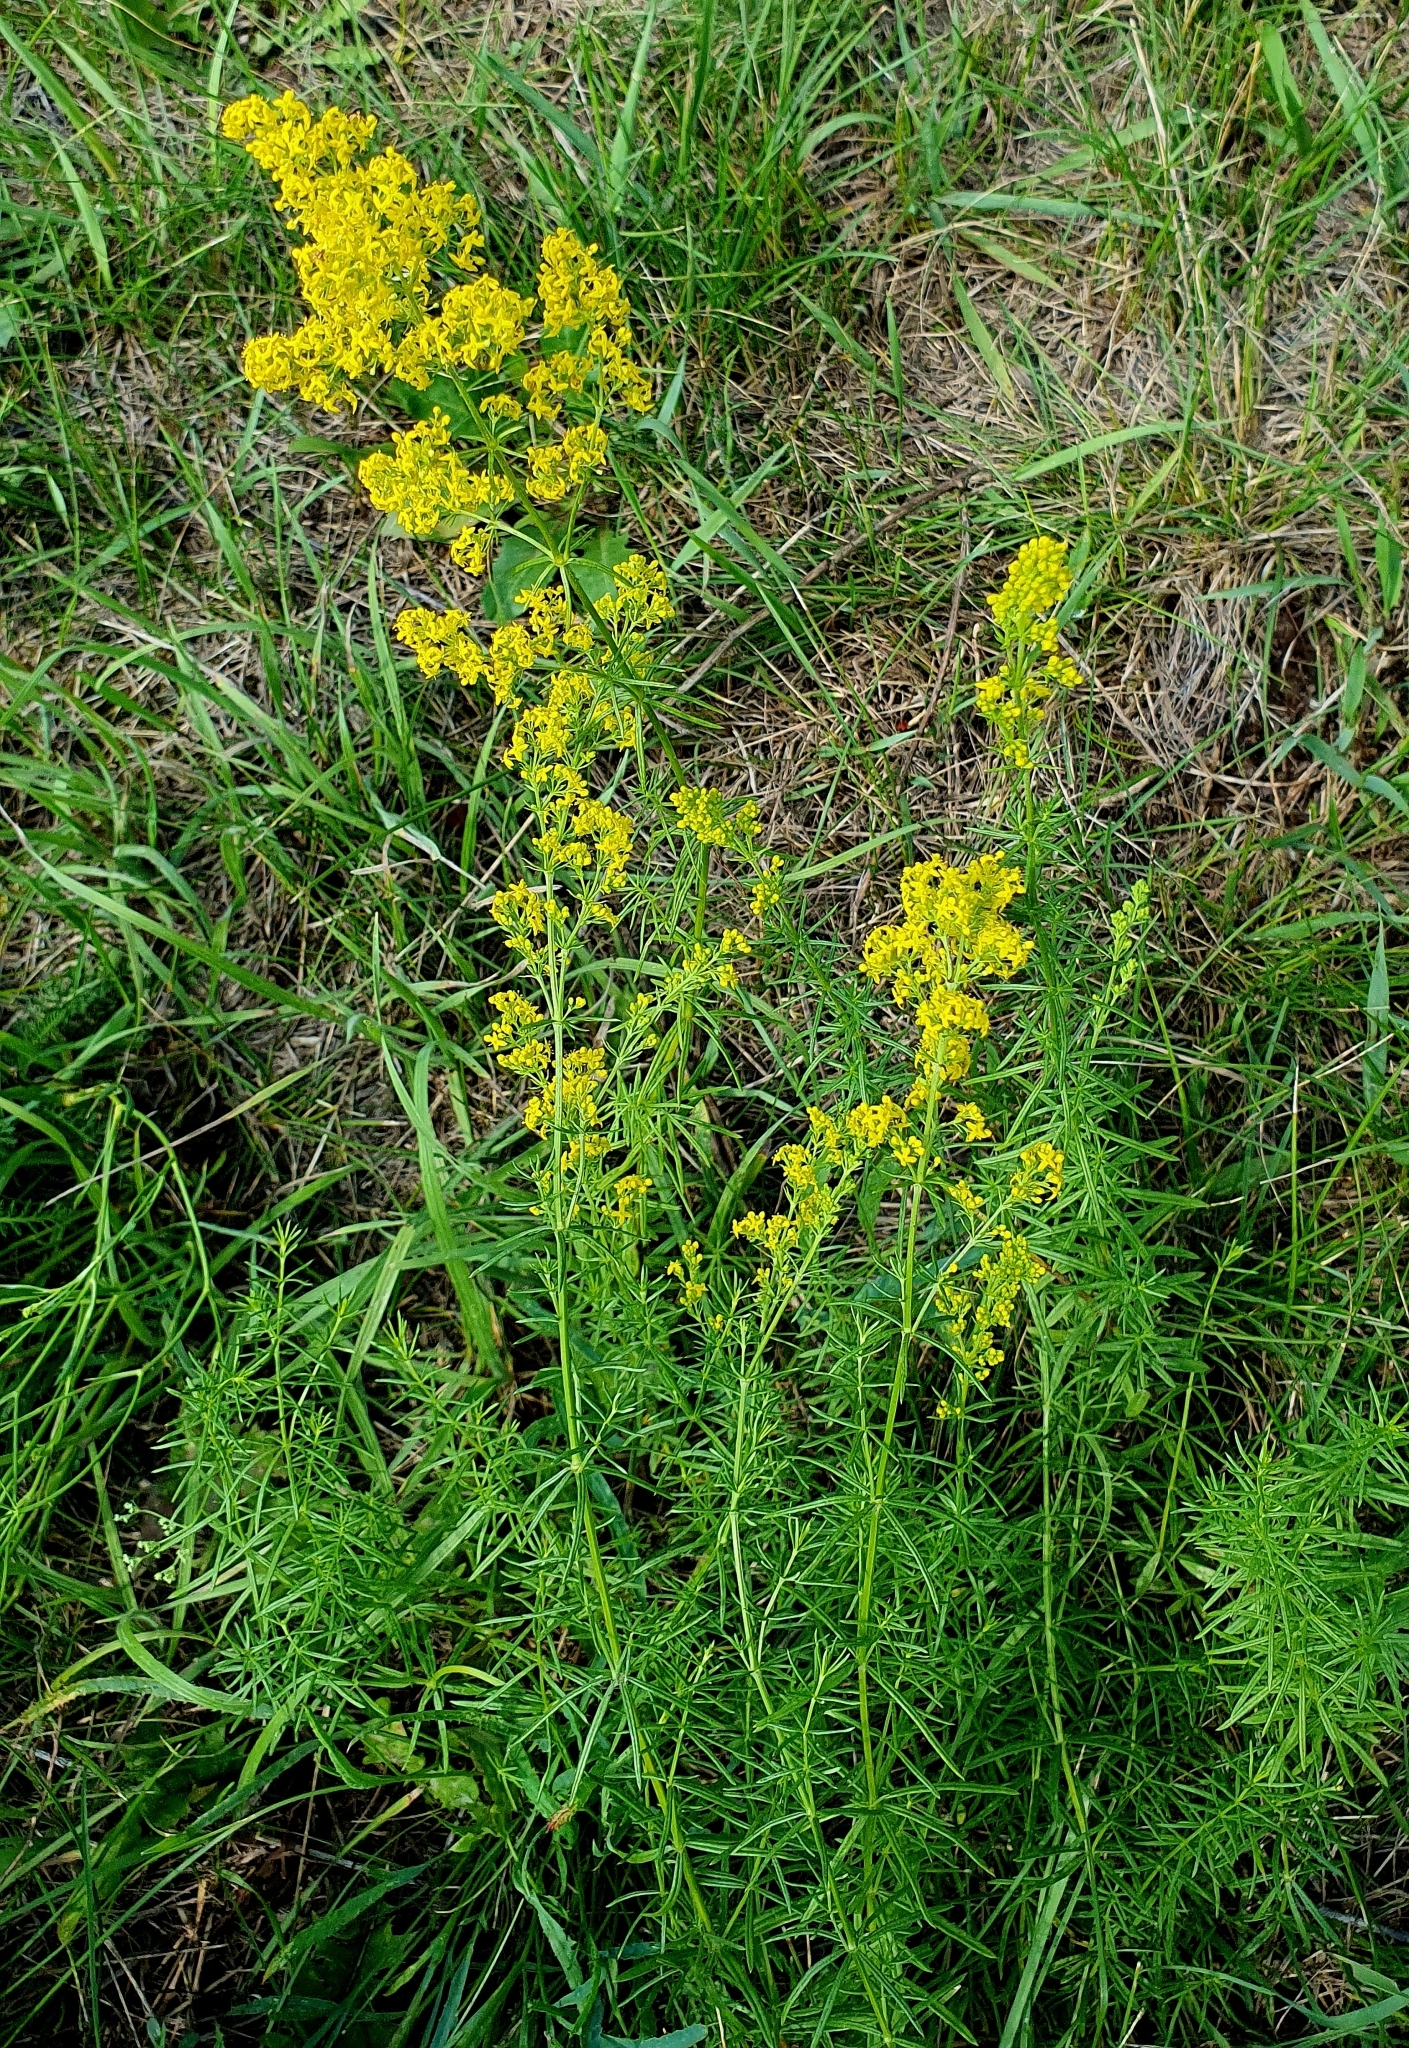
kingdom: Plantae
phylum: Tracheophyta
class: Magnoliopsida
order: Gentianales
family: Rubiaceae
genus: Galium
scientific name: Galium verum
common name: Lady's bedstraw
